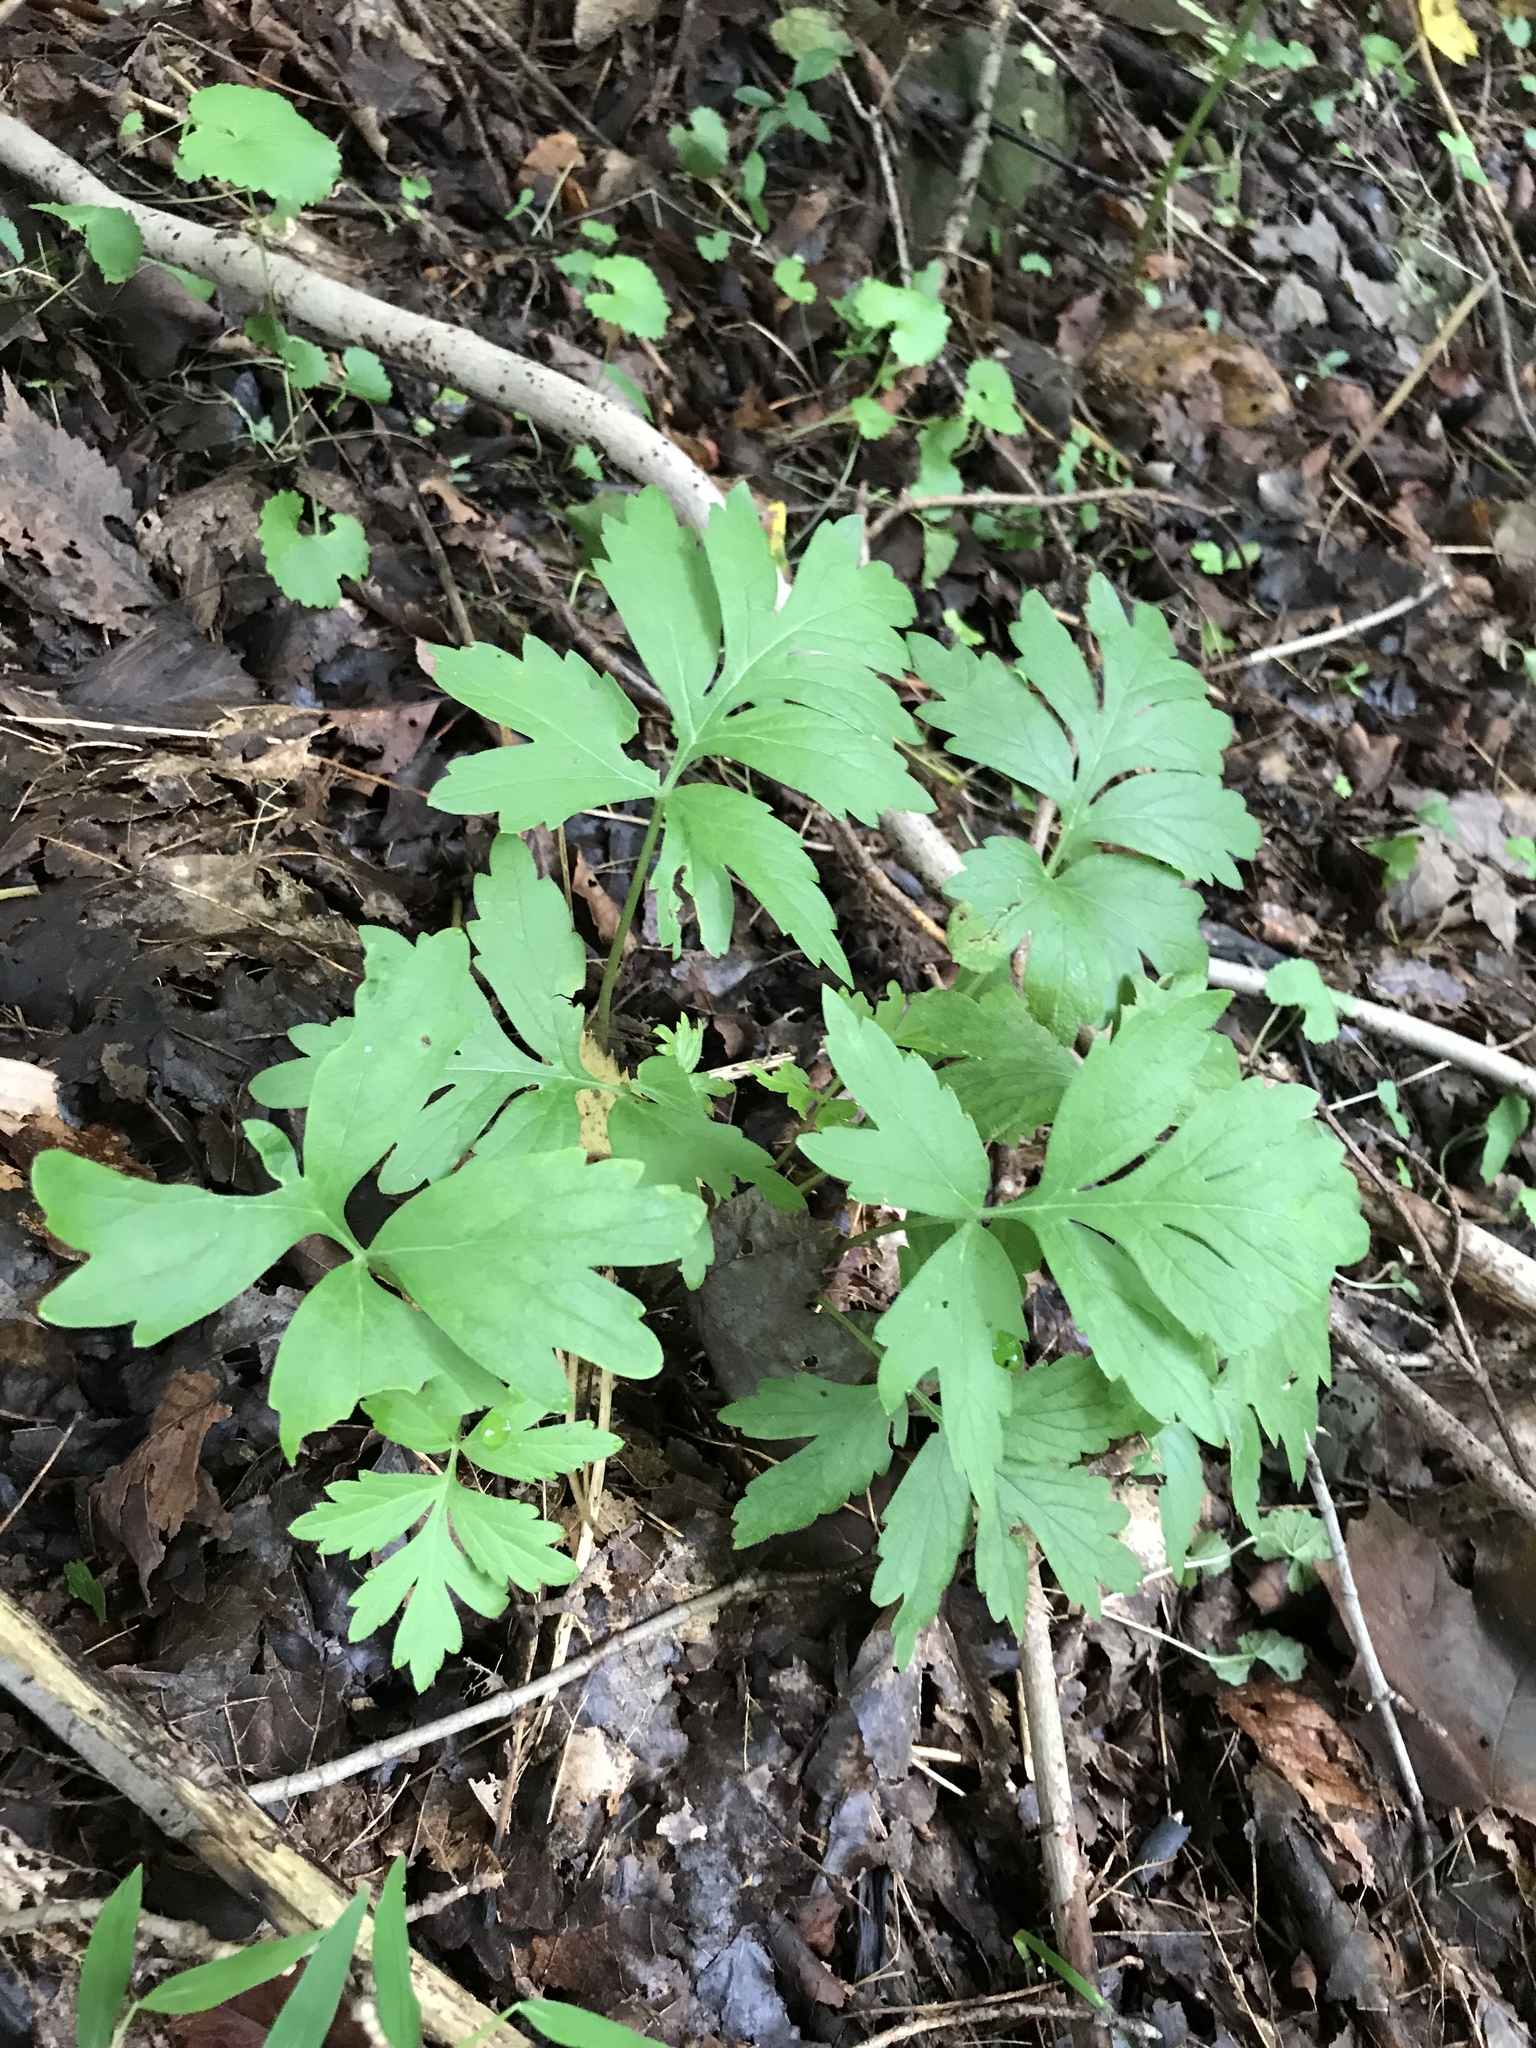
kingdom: Plantae
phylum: Tracheophyta
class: Magnoliopsida
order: Boraginales
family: Hydrophyllaceae
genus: Hydrophyllum
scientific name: Hydrophyllum virginianum
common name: Virginia waterleaf
